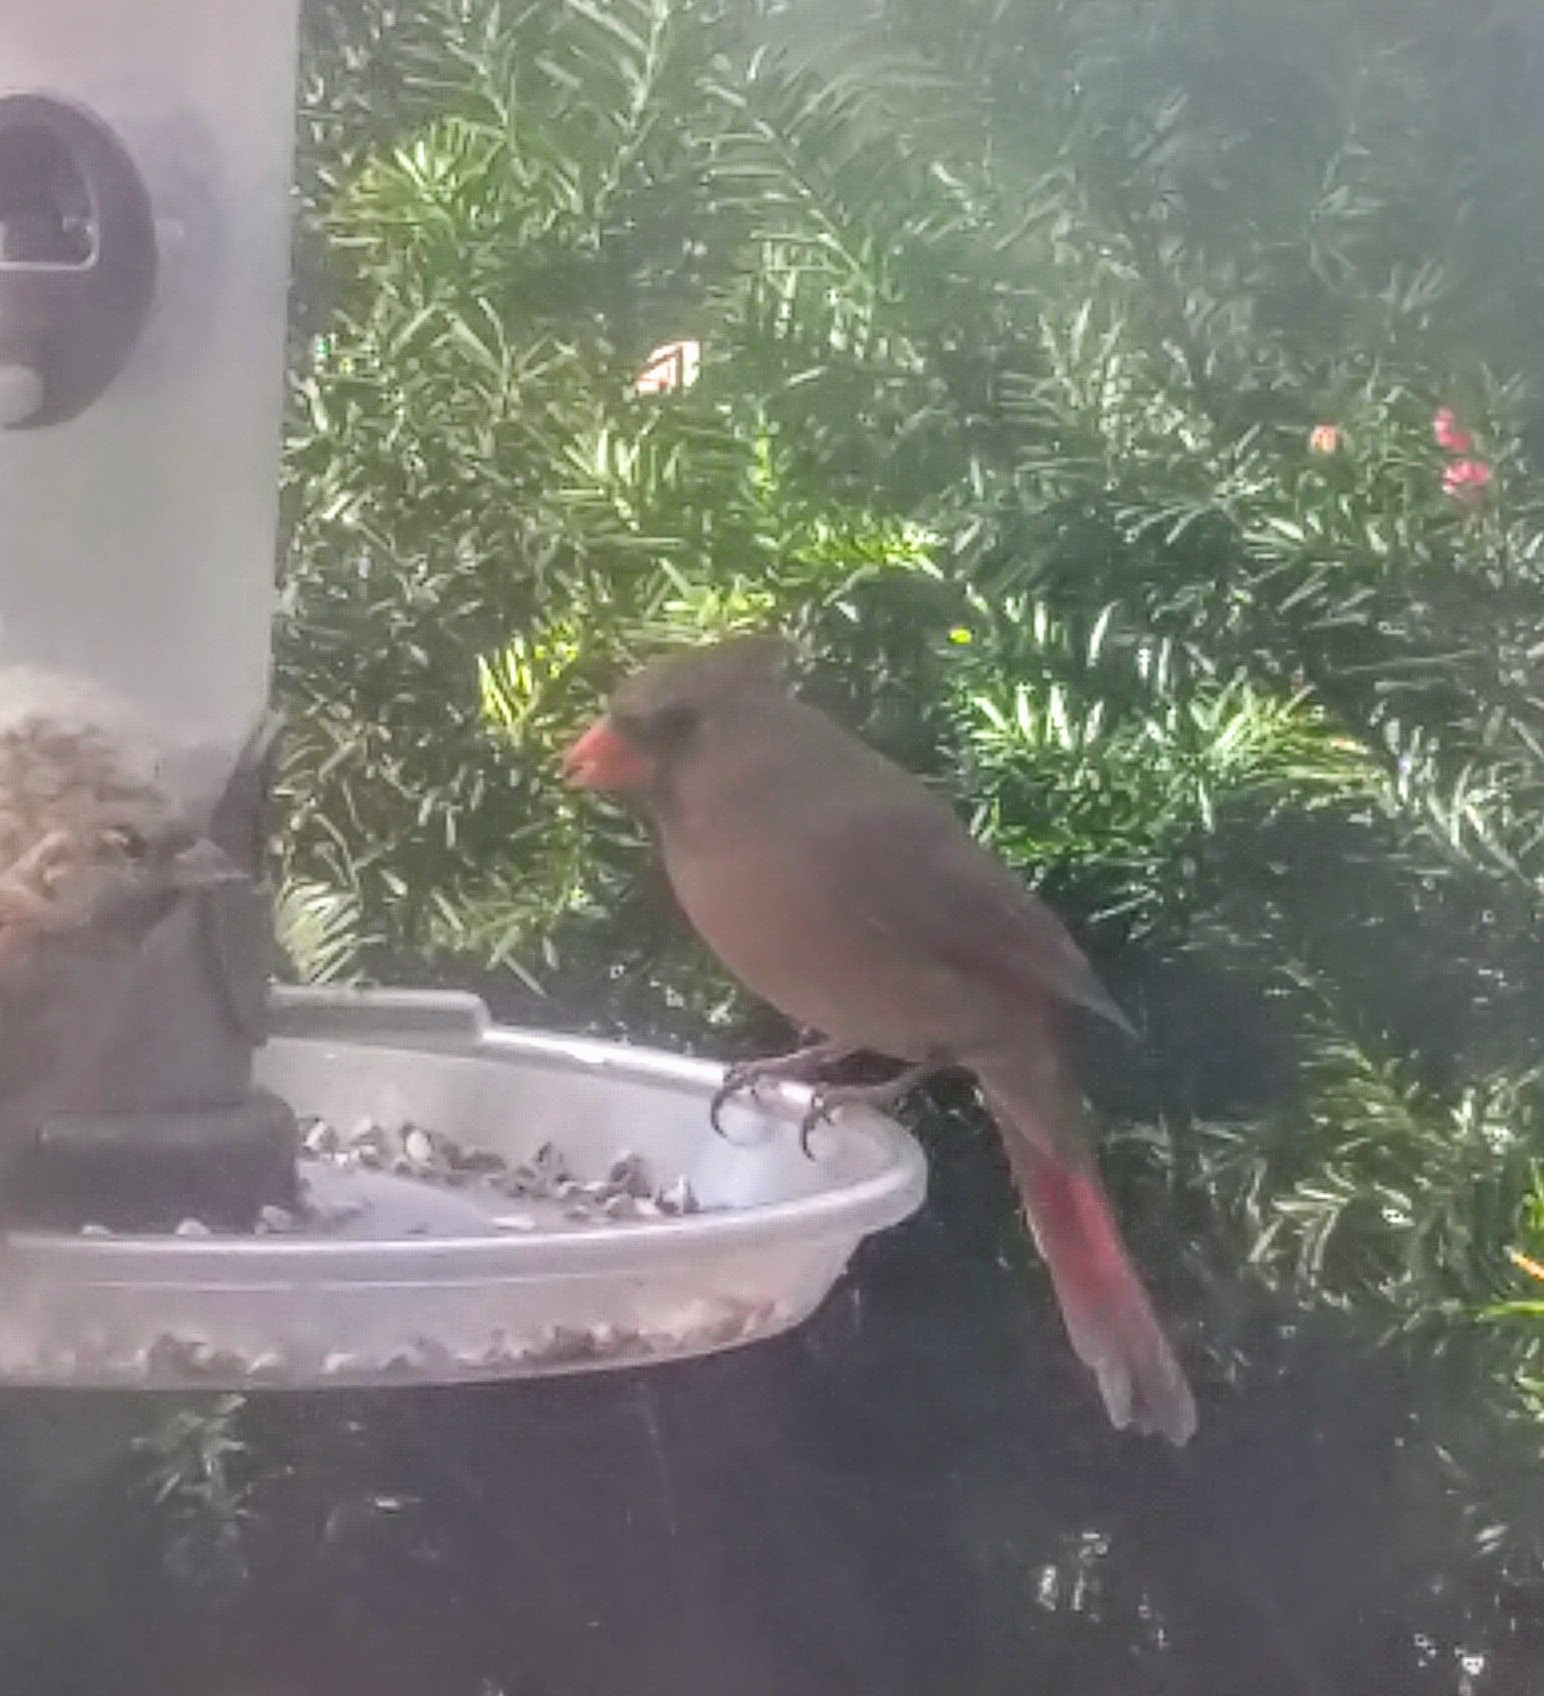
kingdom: Animalia
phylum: Chordata
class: Aves
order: Passeriformes
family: Cardinalidae
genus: Cardinalis
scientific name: Cardinalis cardinalis
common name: Northern cardinal
